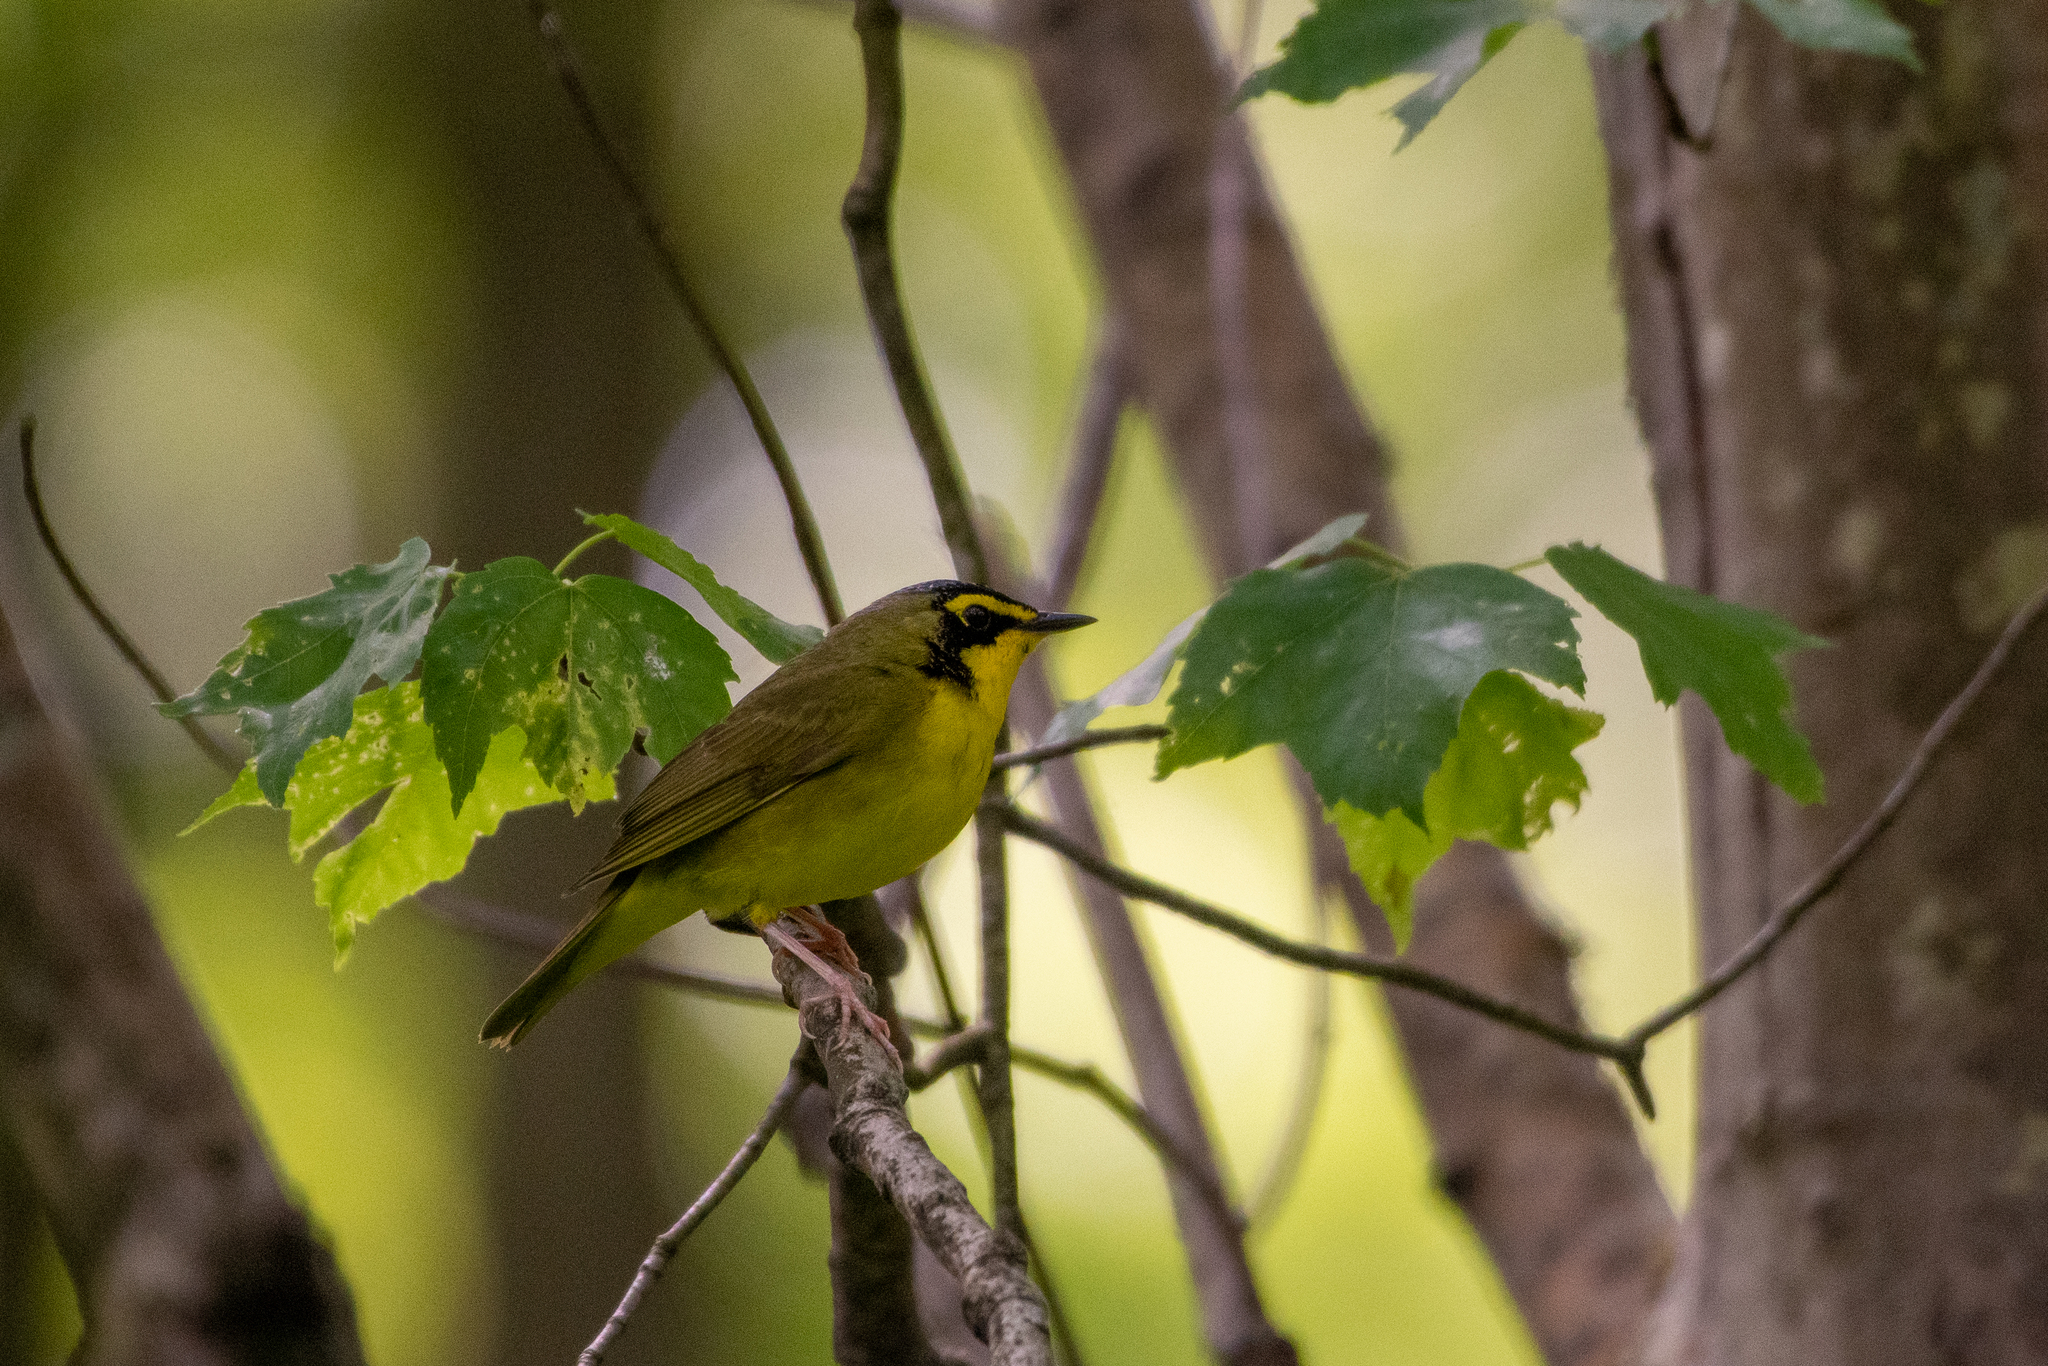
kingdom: Animalia
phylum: Chordata
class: Aves
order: Passeriformes
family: Parulidae
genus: Geothlypis
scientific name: Geothlypis formosa
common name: Kentucky warbler
